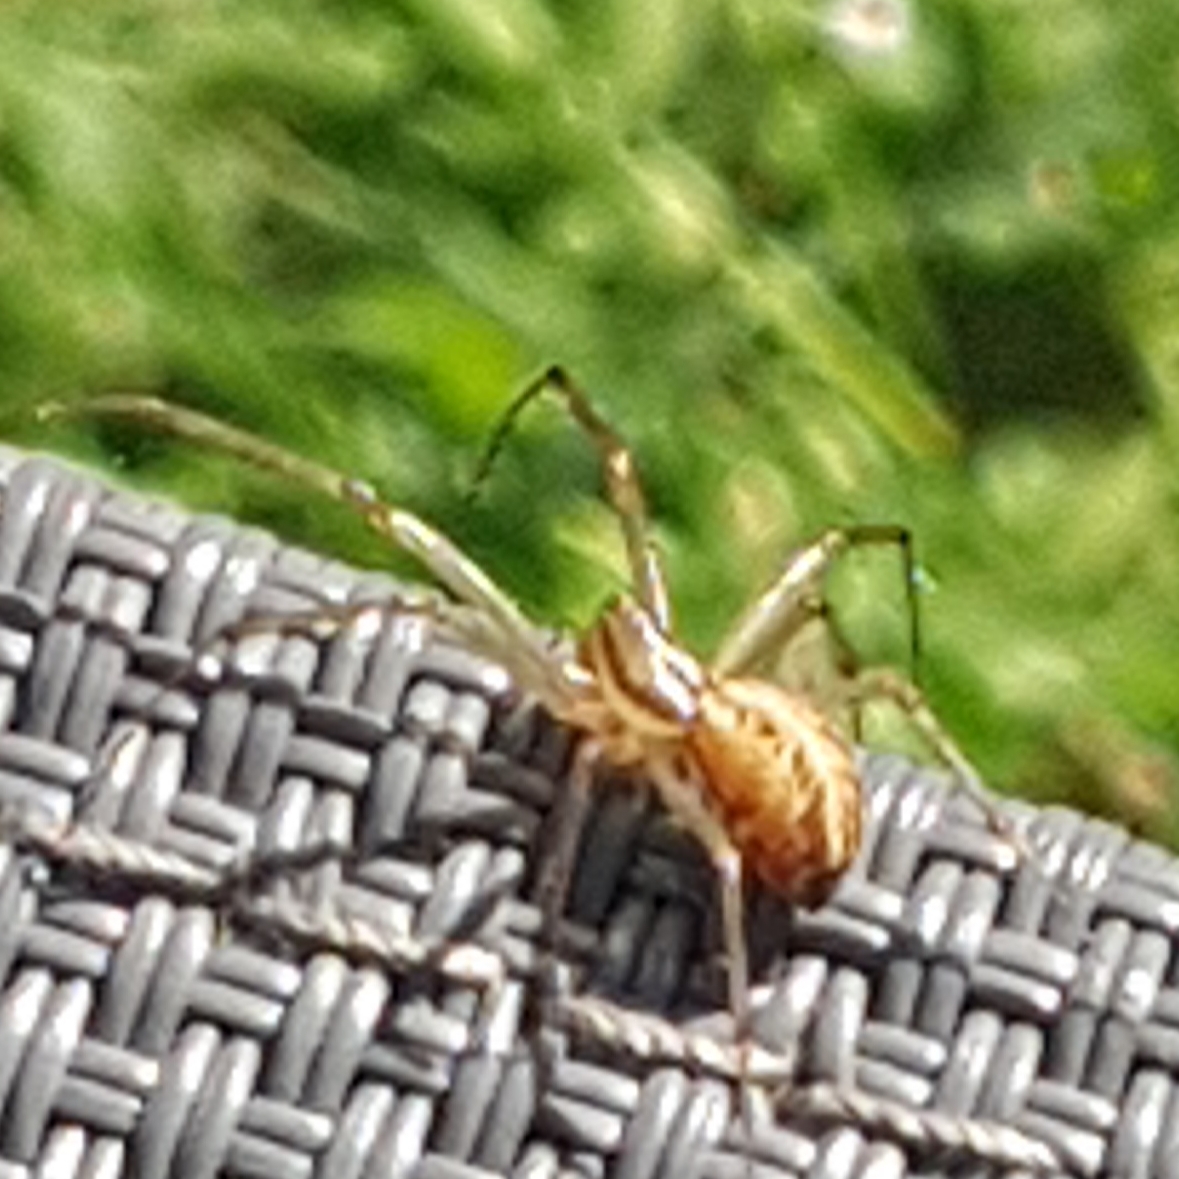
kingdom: Animalia
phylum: Arthropoda
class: Arachnida
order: Araneae
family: Linyphiidae
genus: Linyphia
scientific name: Linyphia triangularis
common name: Money spider
